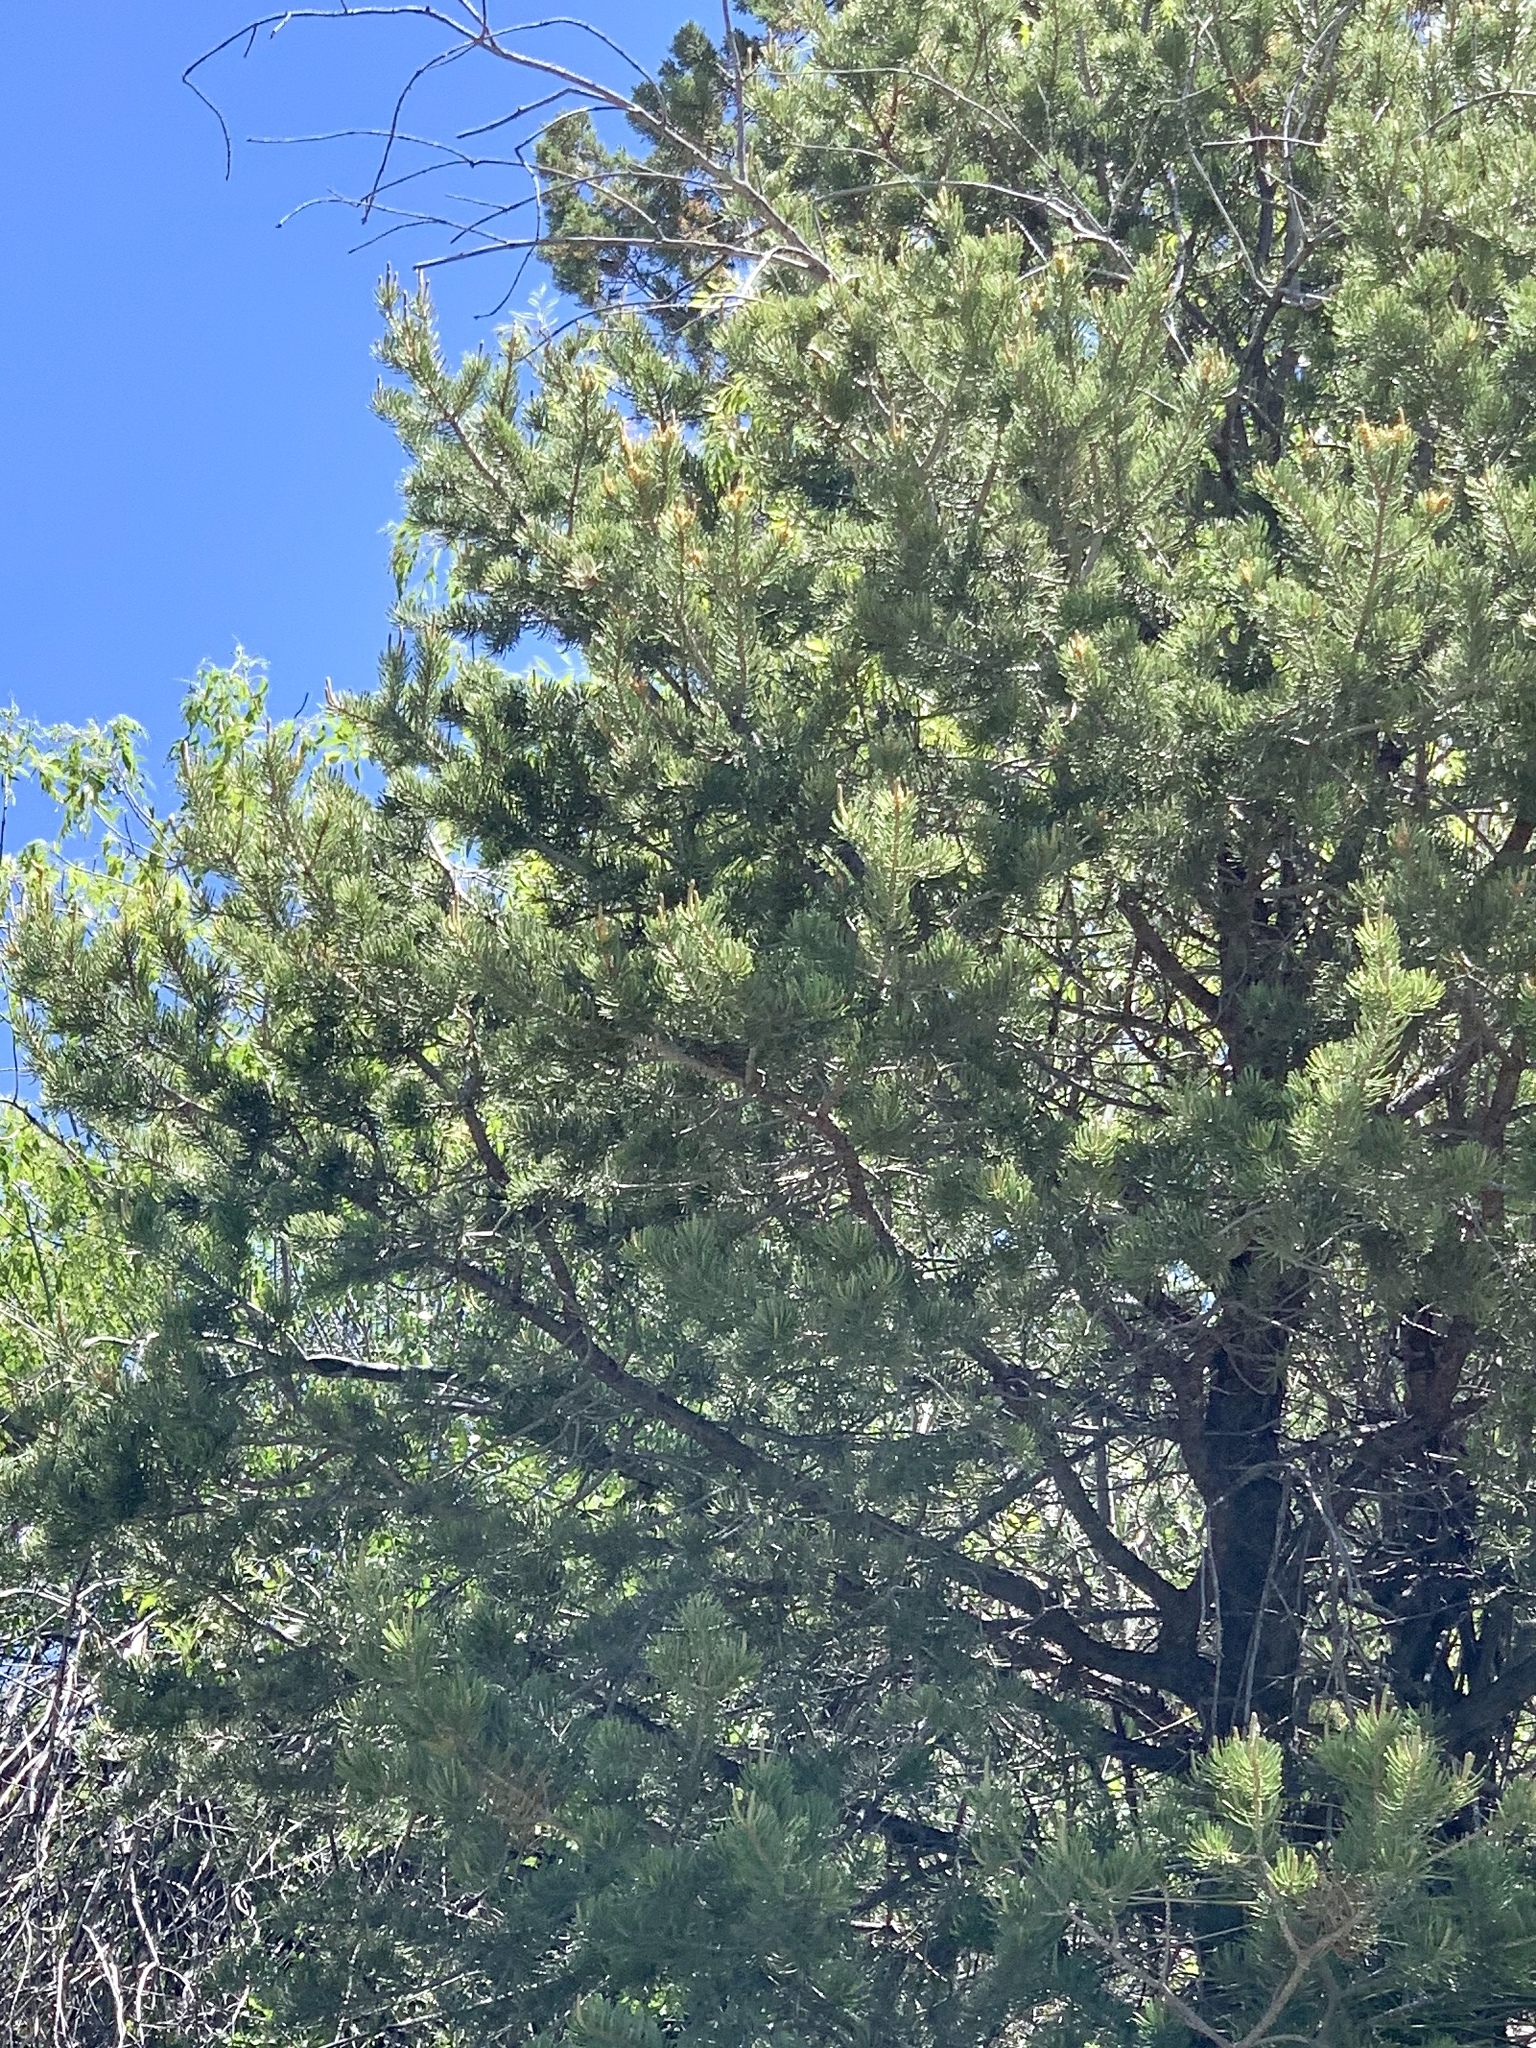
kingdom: Plantae
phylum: Tracheophyta
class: Pinopsida
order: Pinales
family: Pinaceae
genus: Pinus
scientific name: Pinus edulis
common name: Colorado pinyon
